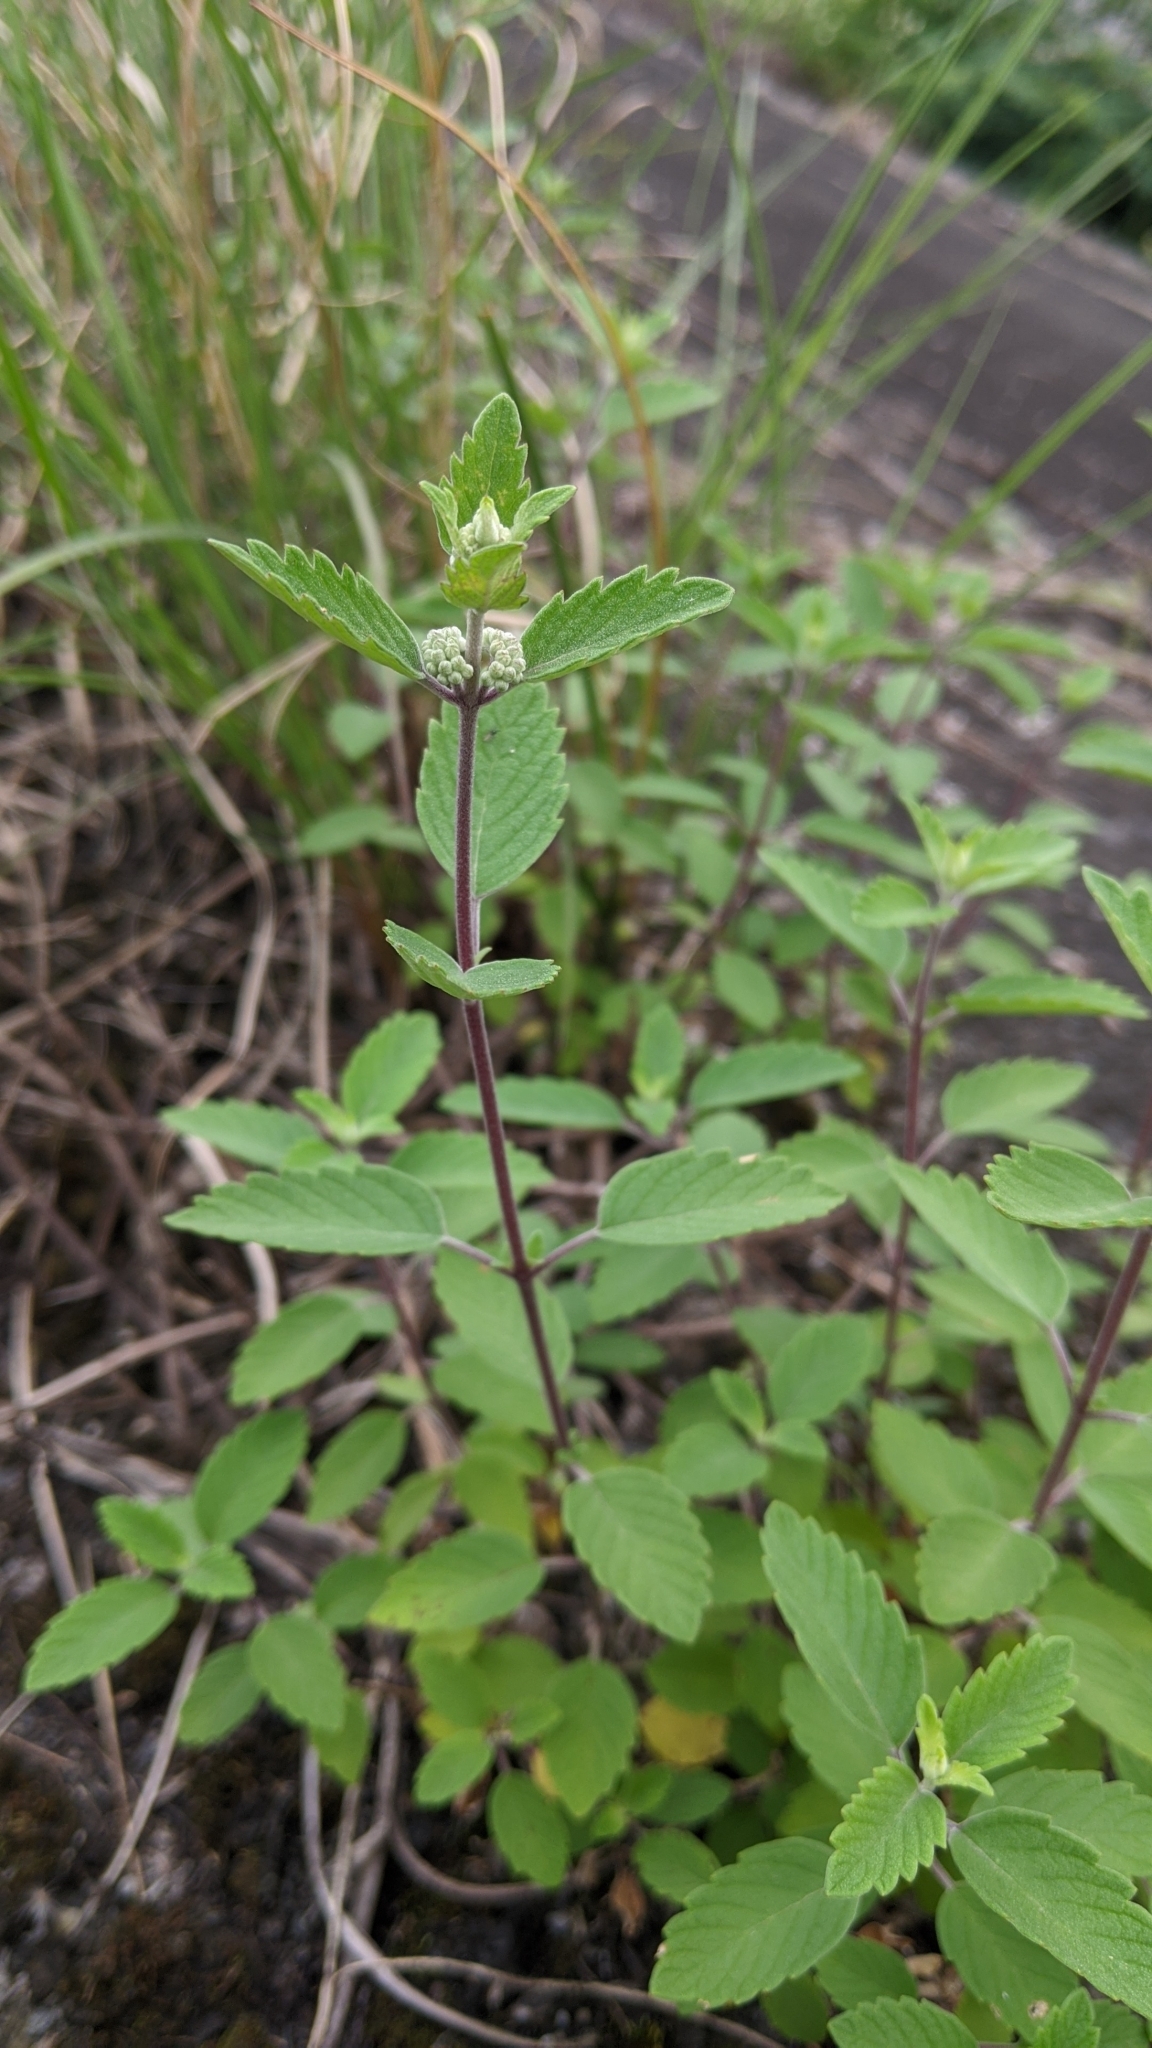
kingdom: Plantae
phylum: Tracheophyta
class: Magnoliopsida
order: Lamiales
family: Lamiaceae
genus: Caryopteris
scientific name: Caryopteris incana
